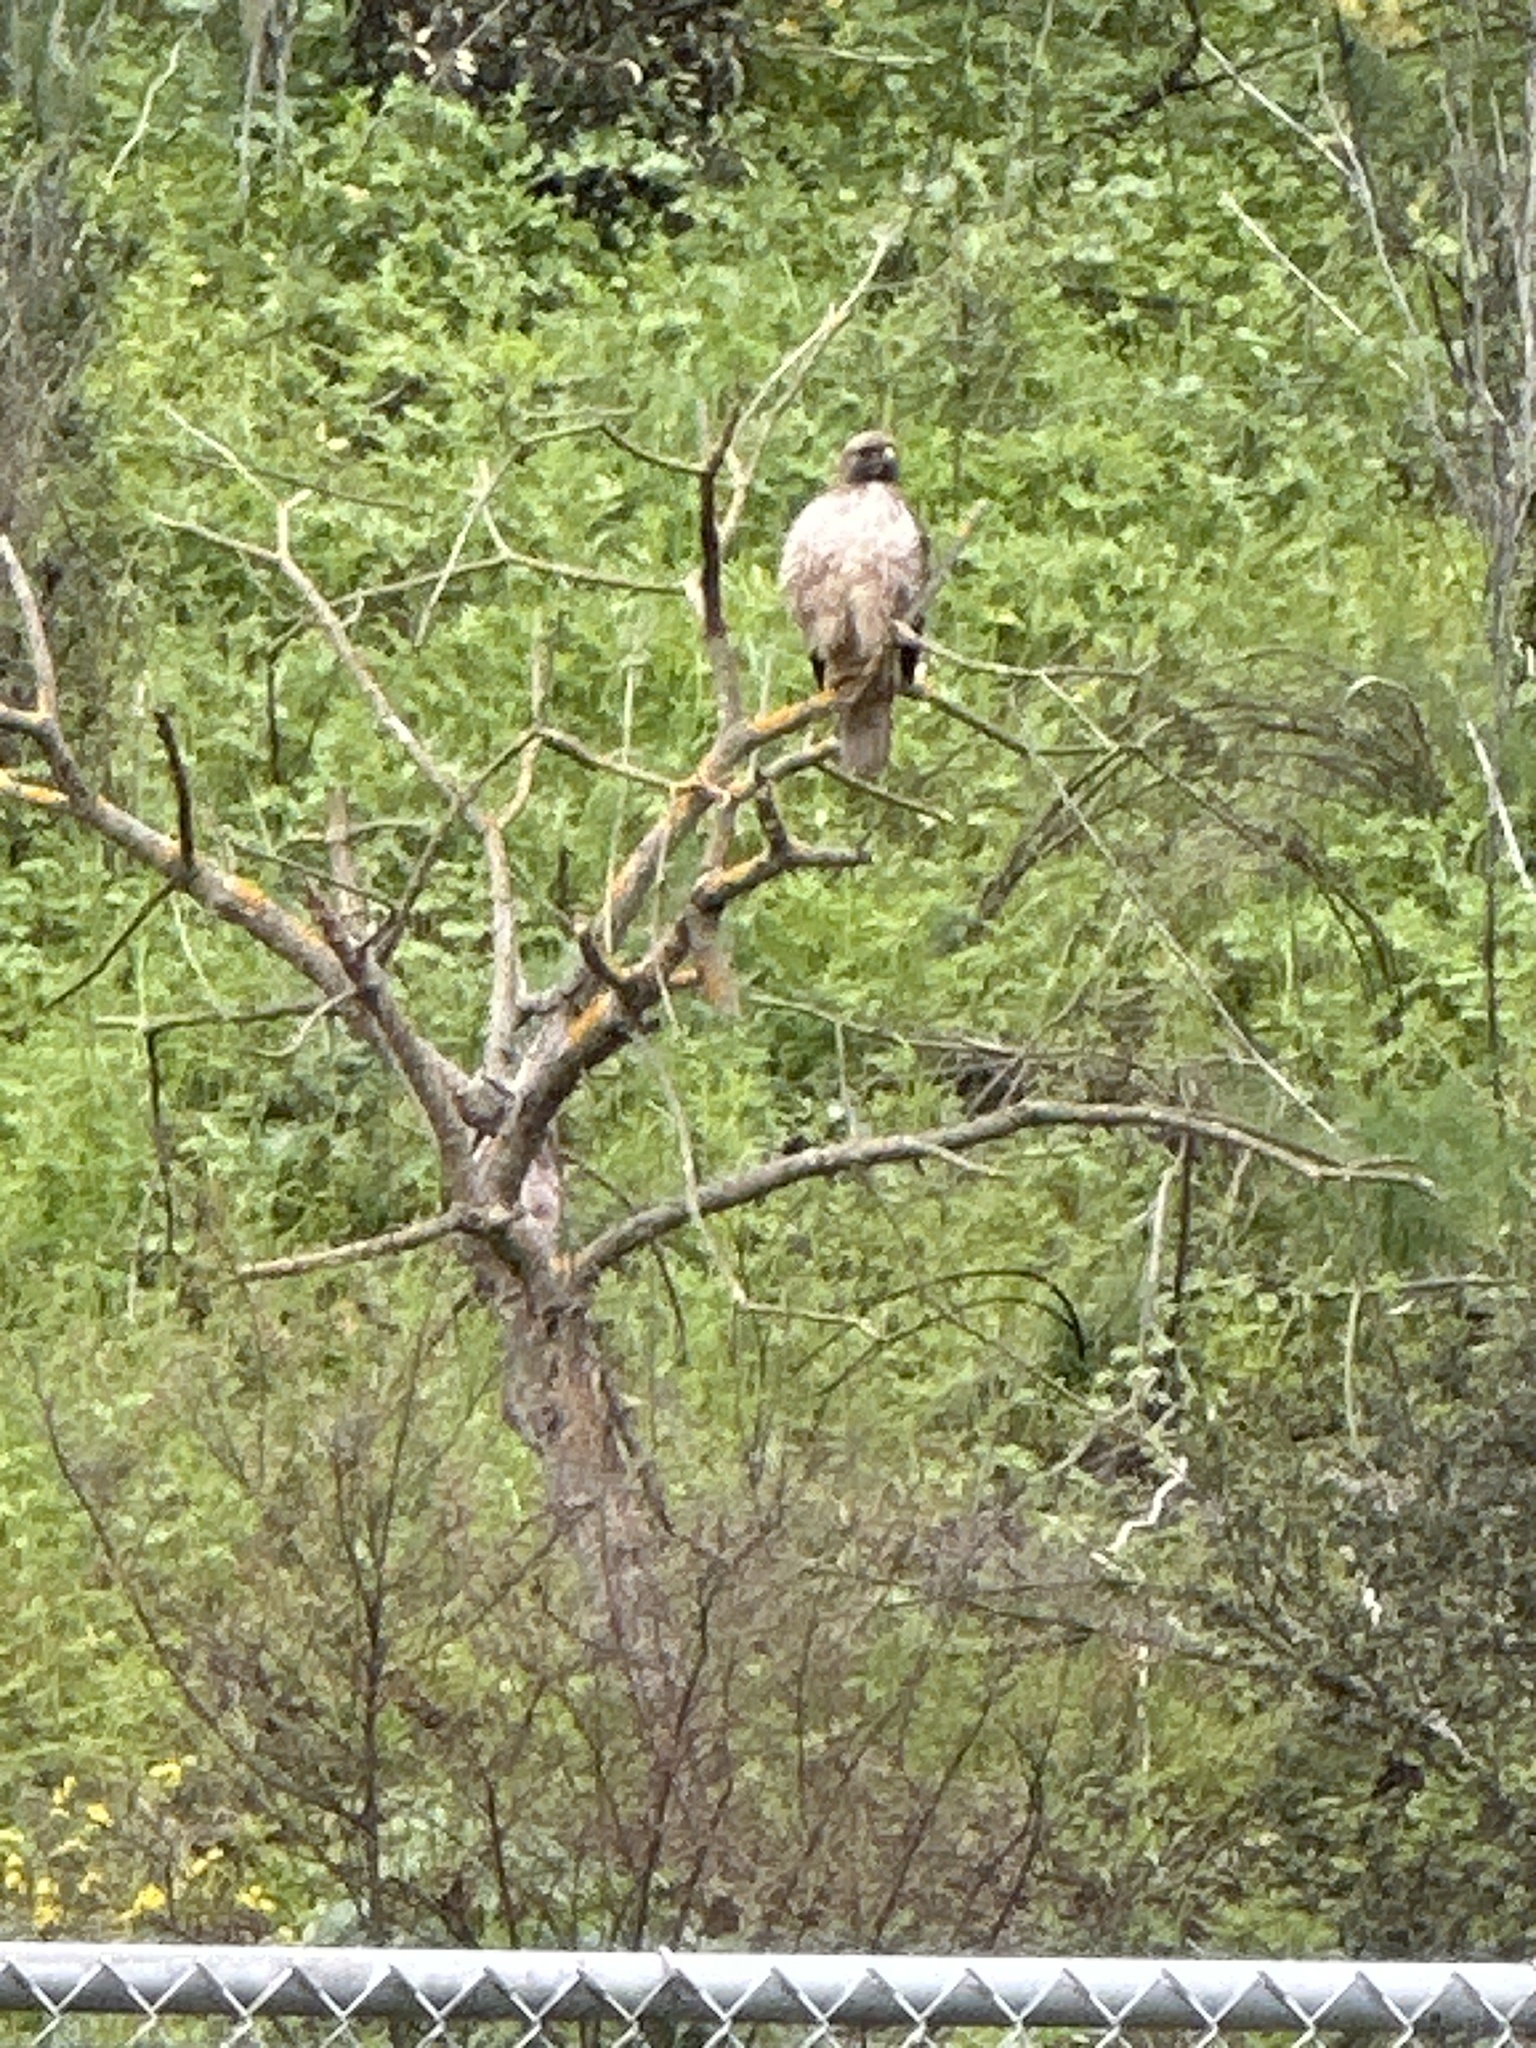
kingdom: Animalia
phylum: Chordata
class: Aves
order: Accipitriformes
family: Accipitridae
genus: Buteo
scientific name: Buteo jamaicensis
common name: Red-tailed hawk
